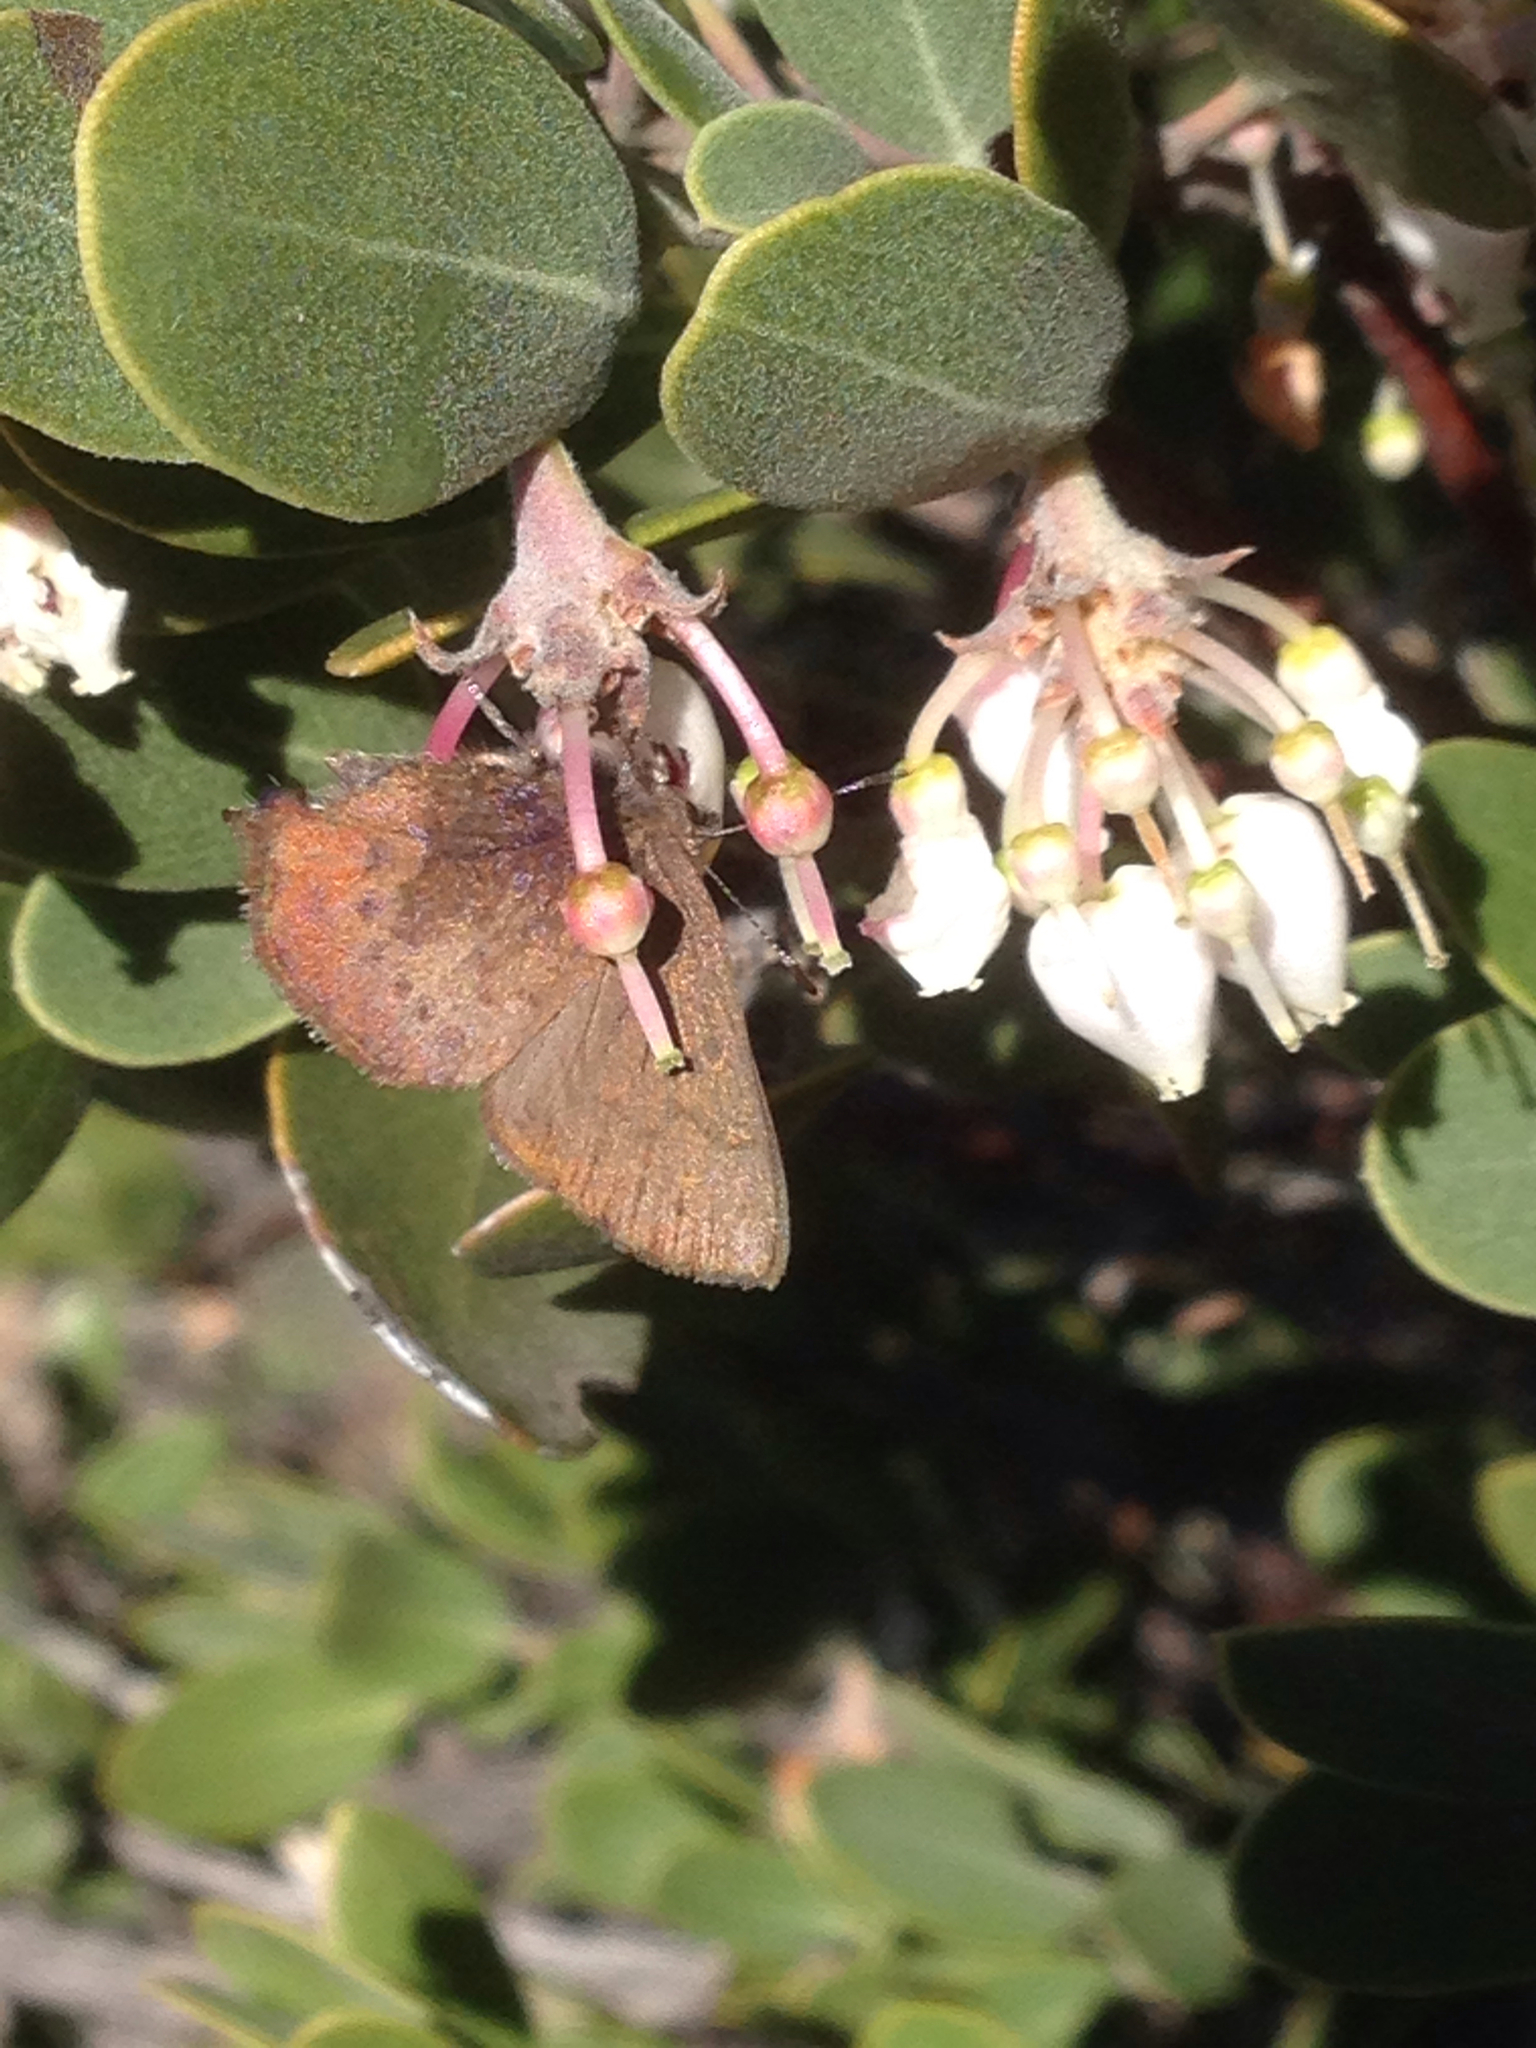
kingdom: Animalia
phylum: Arthropoda
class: Insecta
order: Lepidoptera
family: Lycaenidae
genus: Incisalia
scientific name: Incisalia irioides
